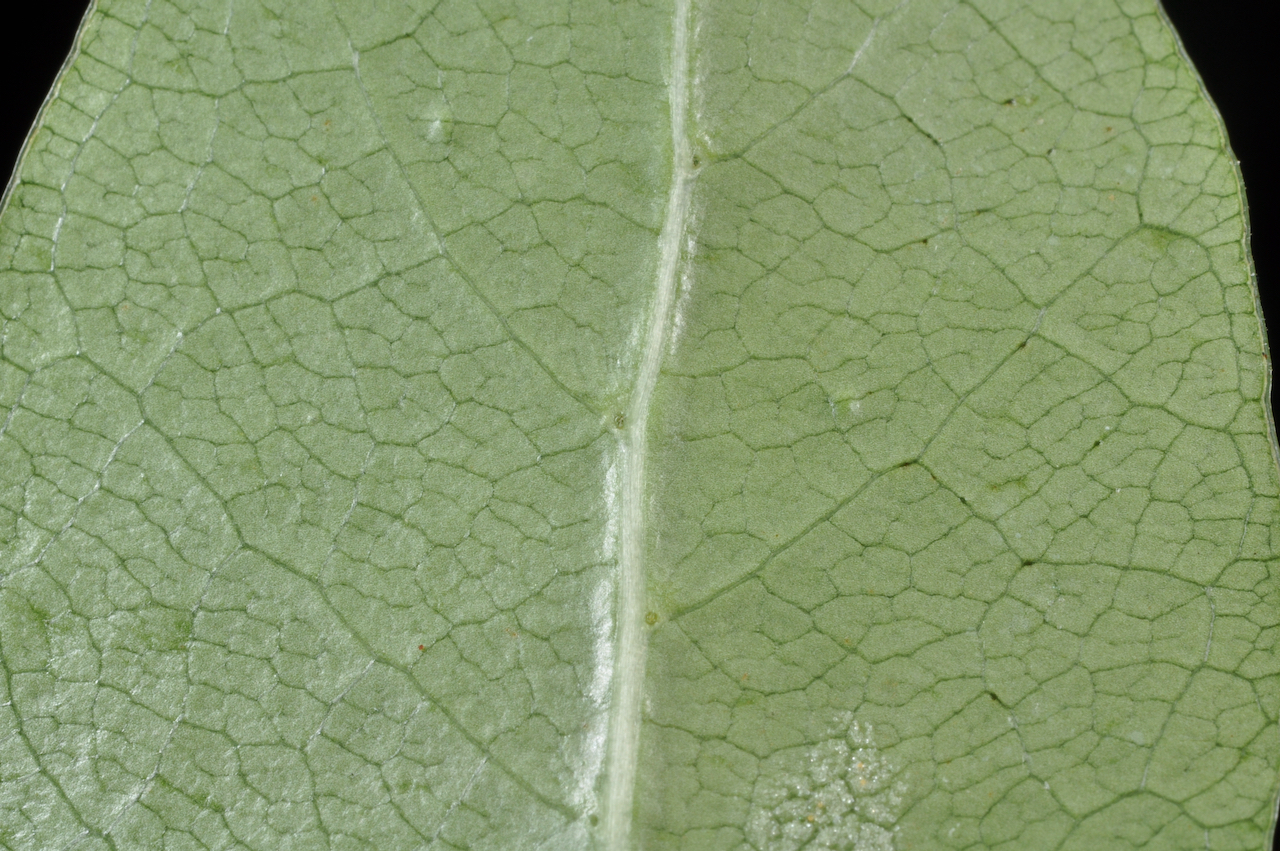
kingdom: Plantae
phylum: Tracheophyta
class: Magnoliopsida
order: Gentianales
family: Rubiaceae
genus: Coprosma
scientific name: Coprosma lucida
